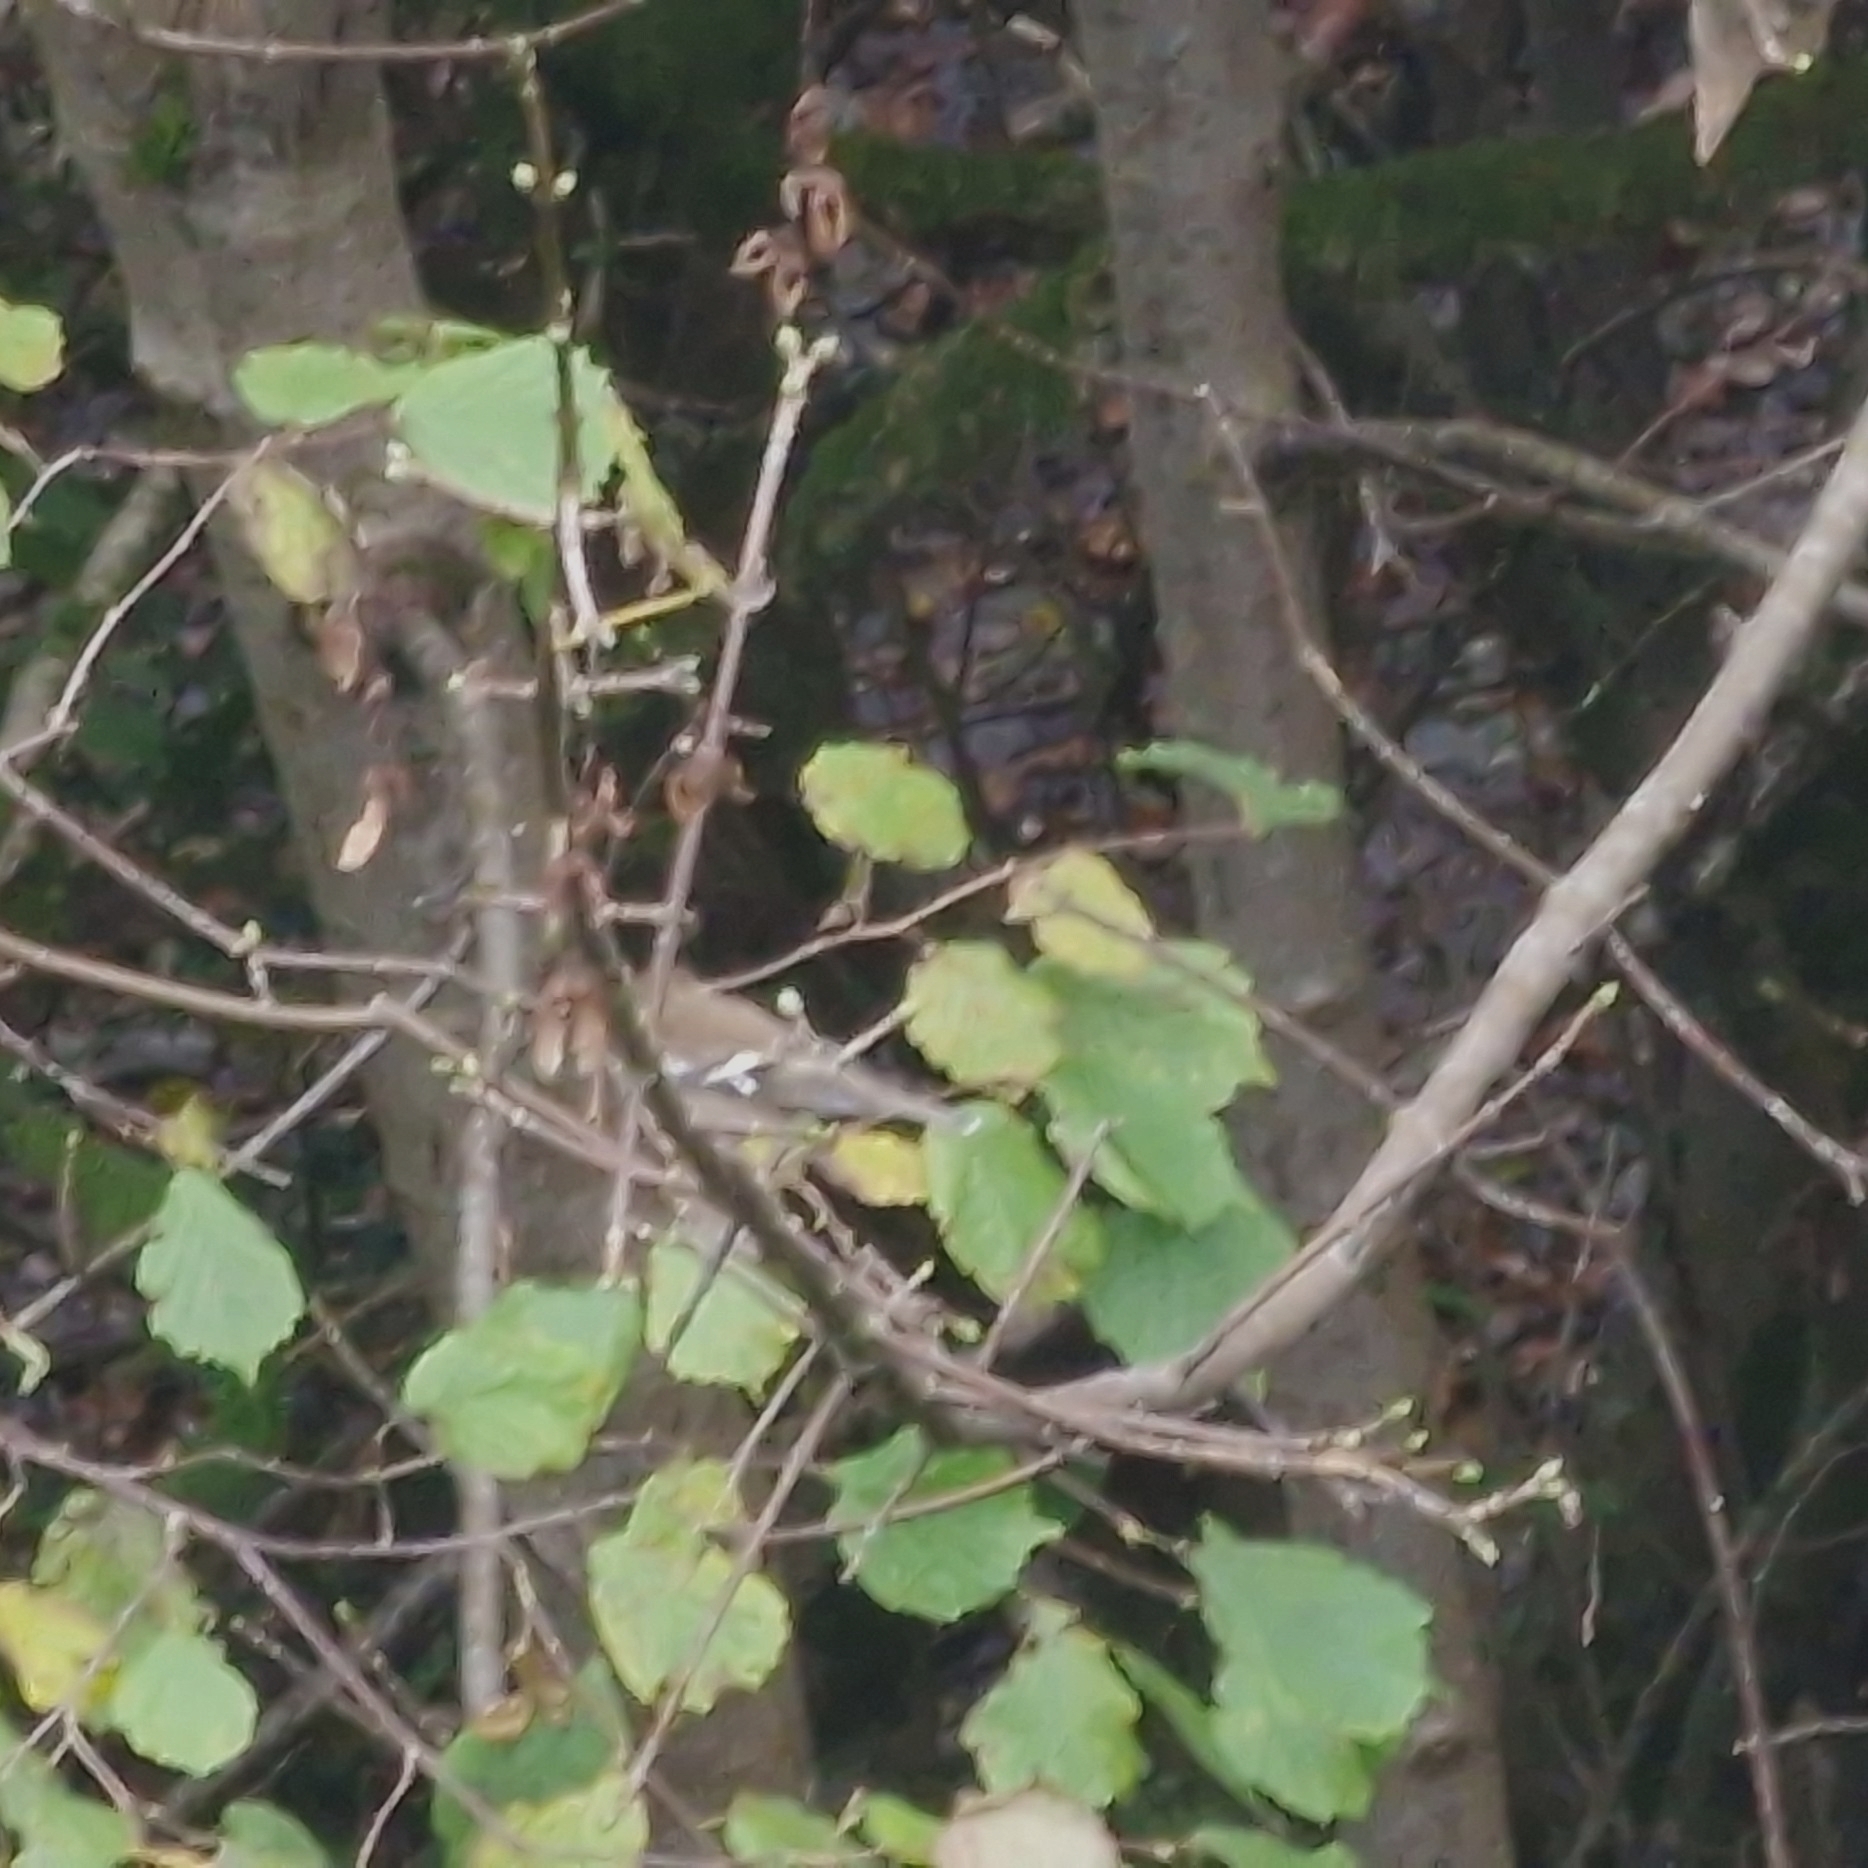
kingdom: Animalia
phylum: Chordata
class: Aves
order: Passeriformes
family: Fringillidae
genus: Fringilla
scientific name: Fringilla coelebs
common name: Common chaffinch
